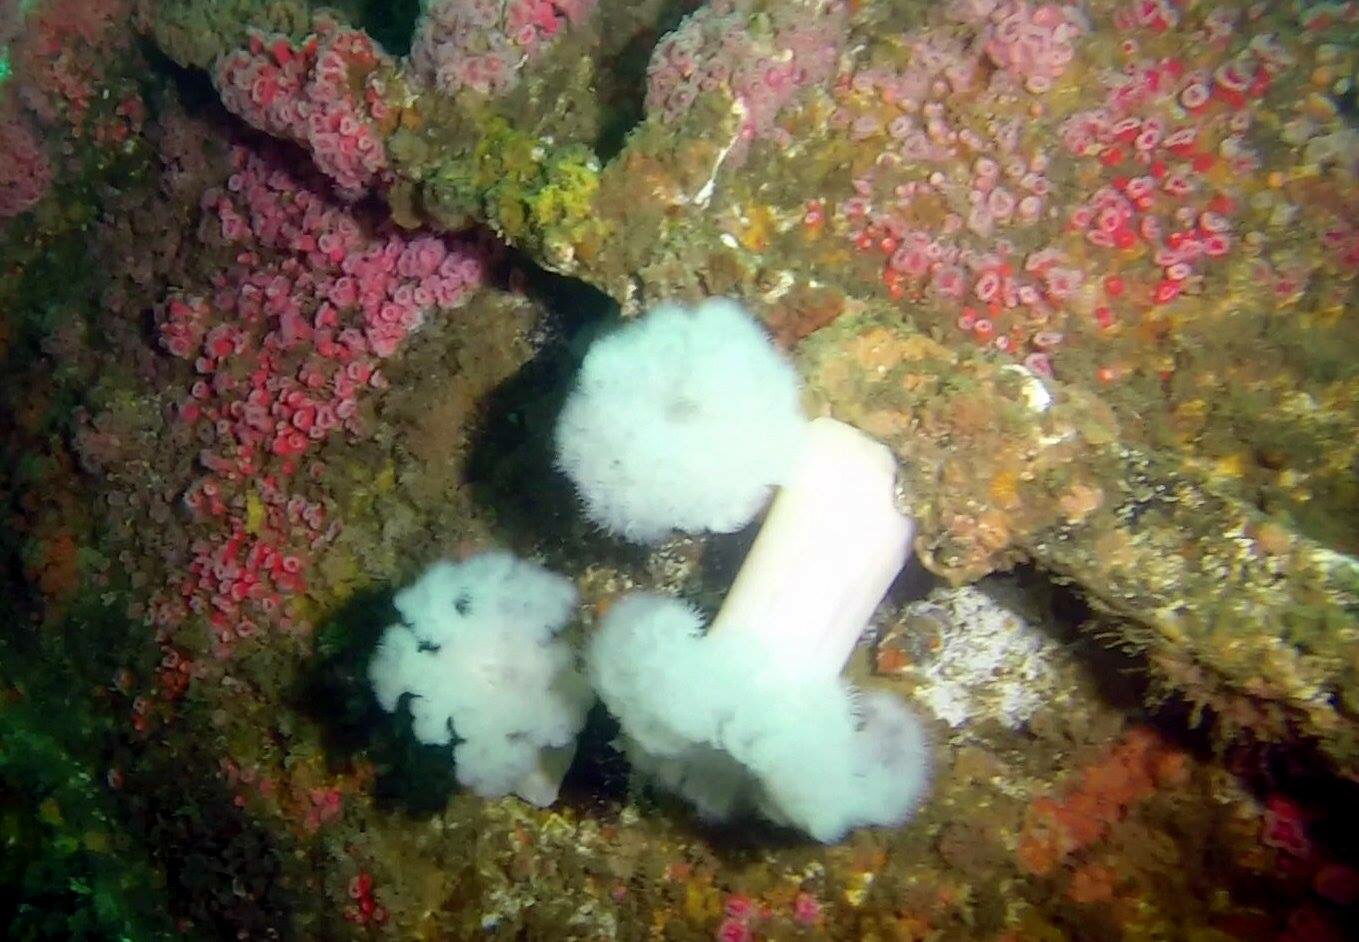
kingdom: Animalia
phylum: Cnidaria
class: Anthozoa
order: Actiniaria
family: Metridiidae
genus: Metridium
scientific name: Metridium farcimen
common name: Gigantic anemone
